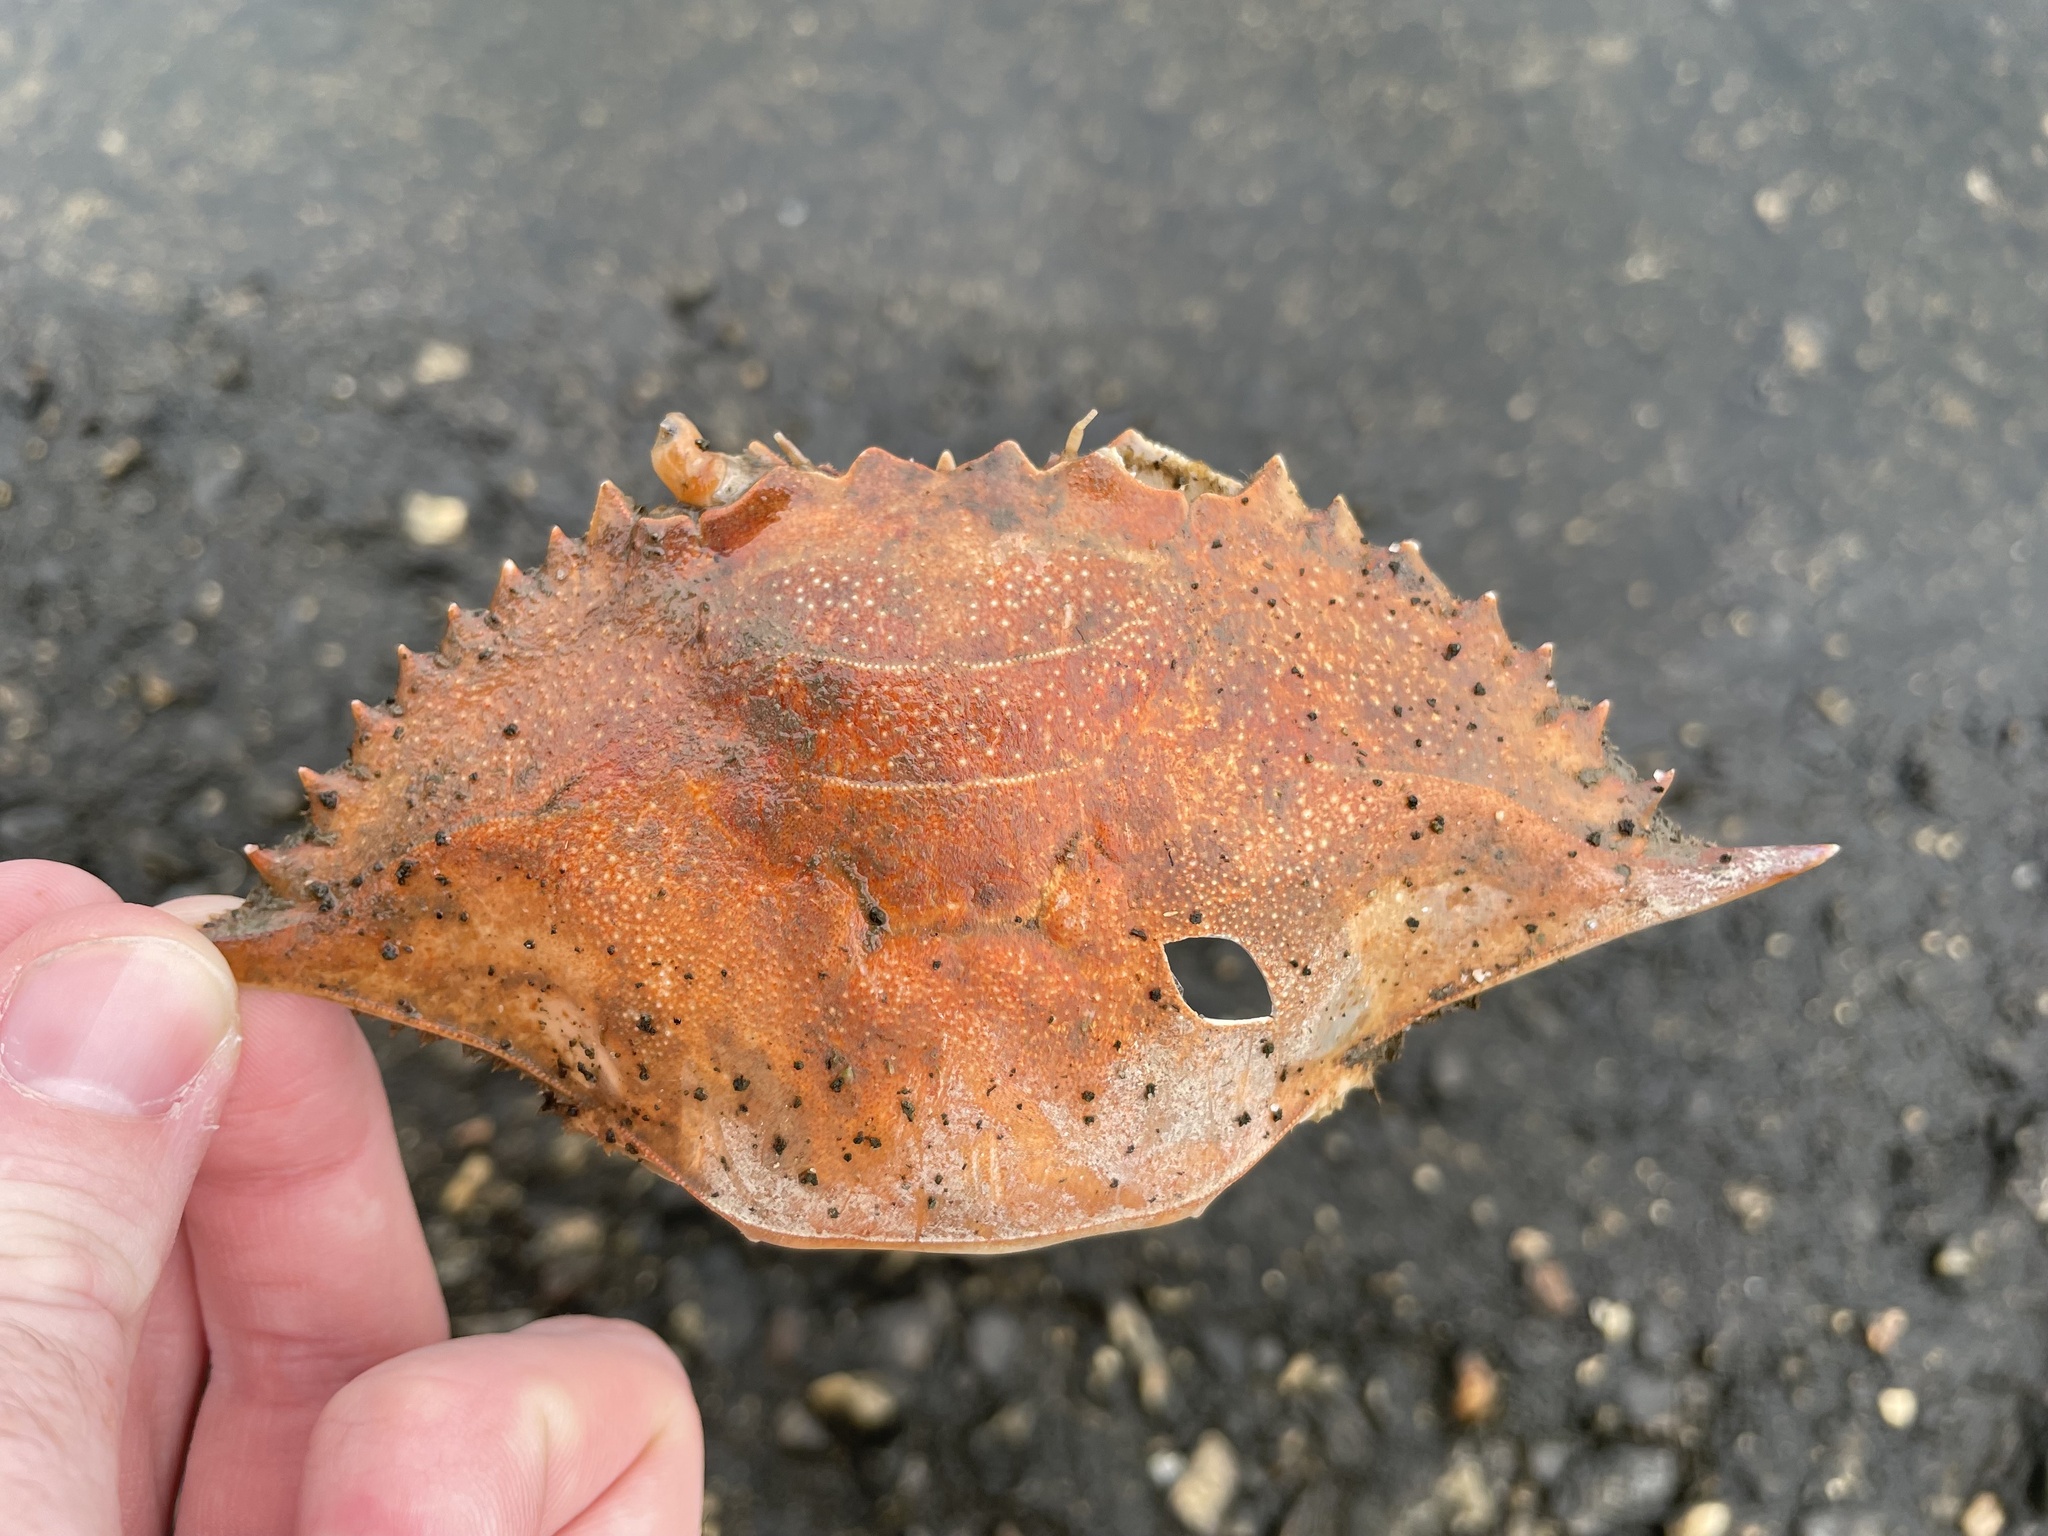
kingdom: Animalia
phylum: Arthropoda
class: Malacostraca
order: Decapoda
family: Portunidae
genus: Callinectes
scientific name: Callinectes sapidus
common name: Blue crab
